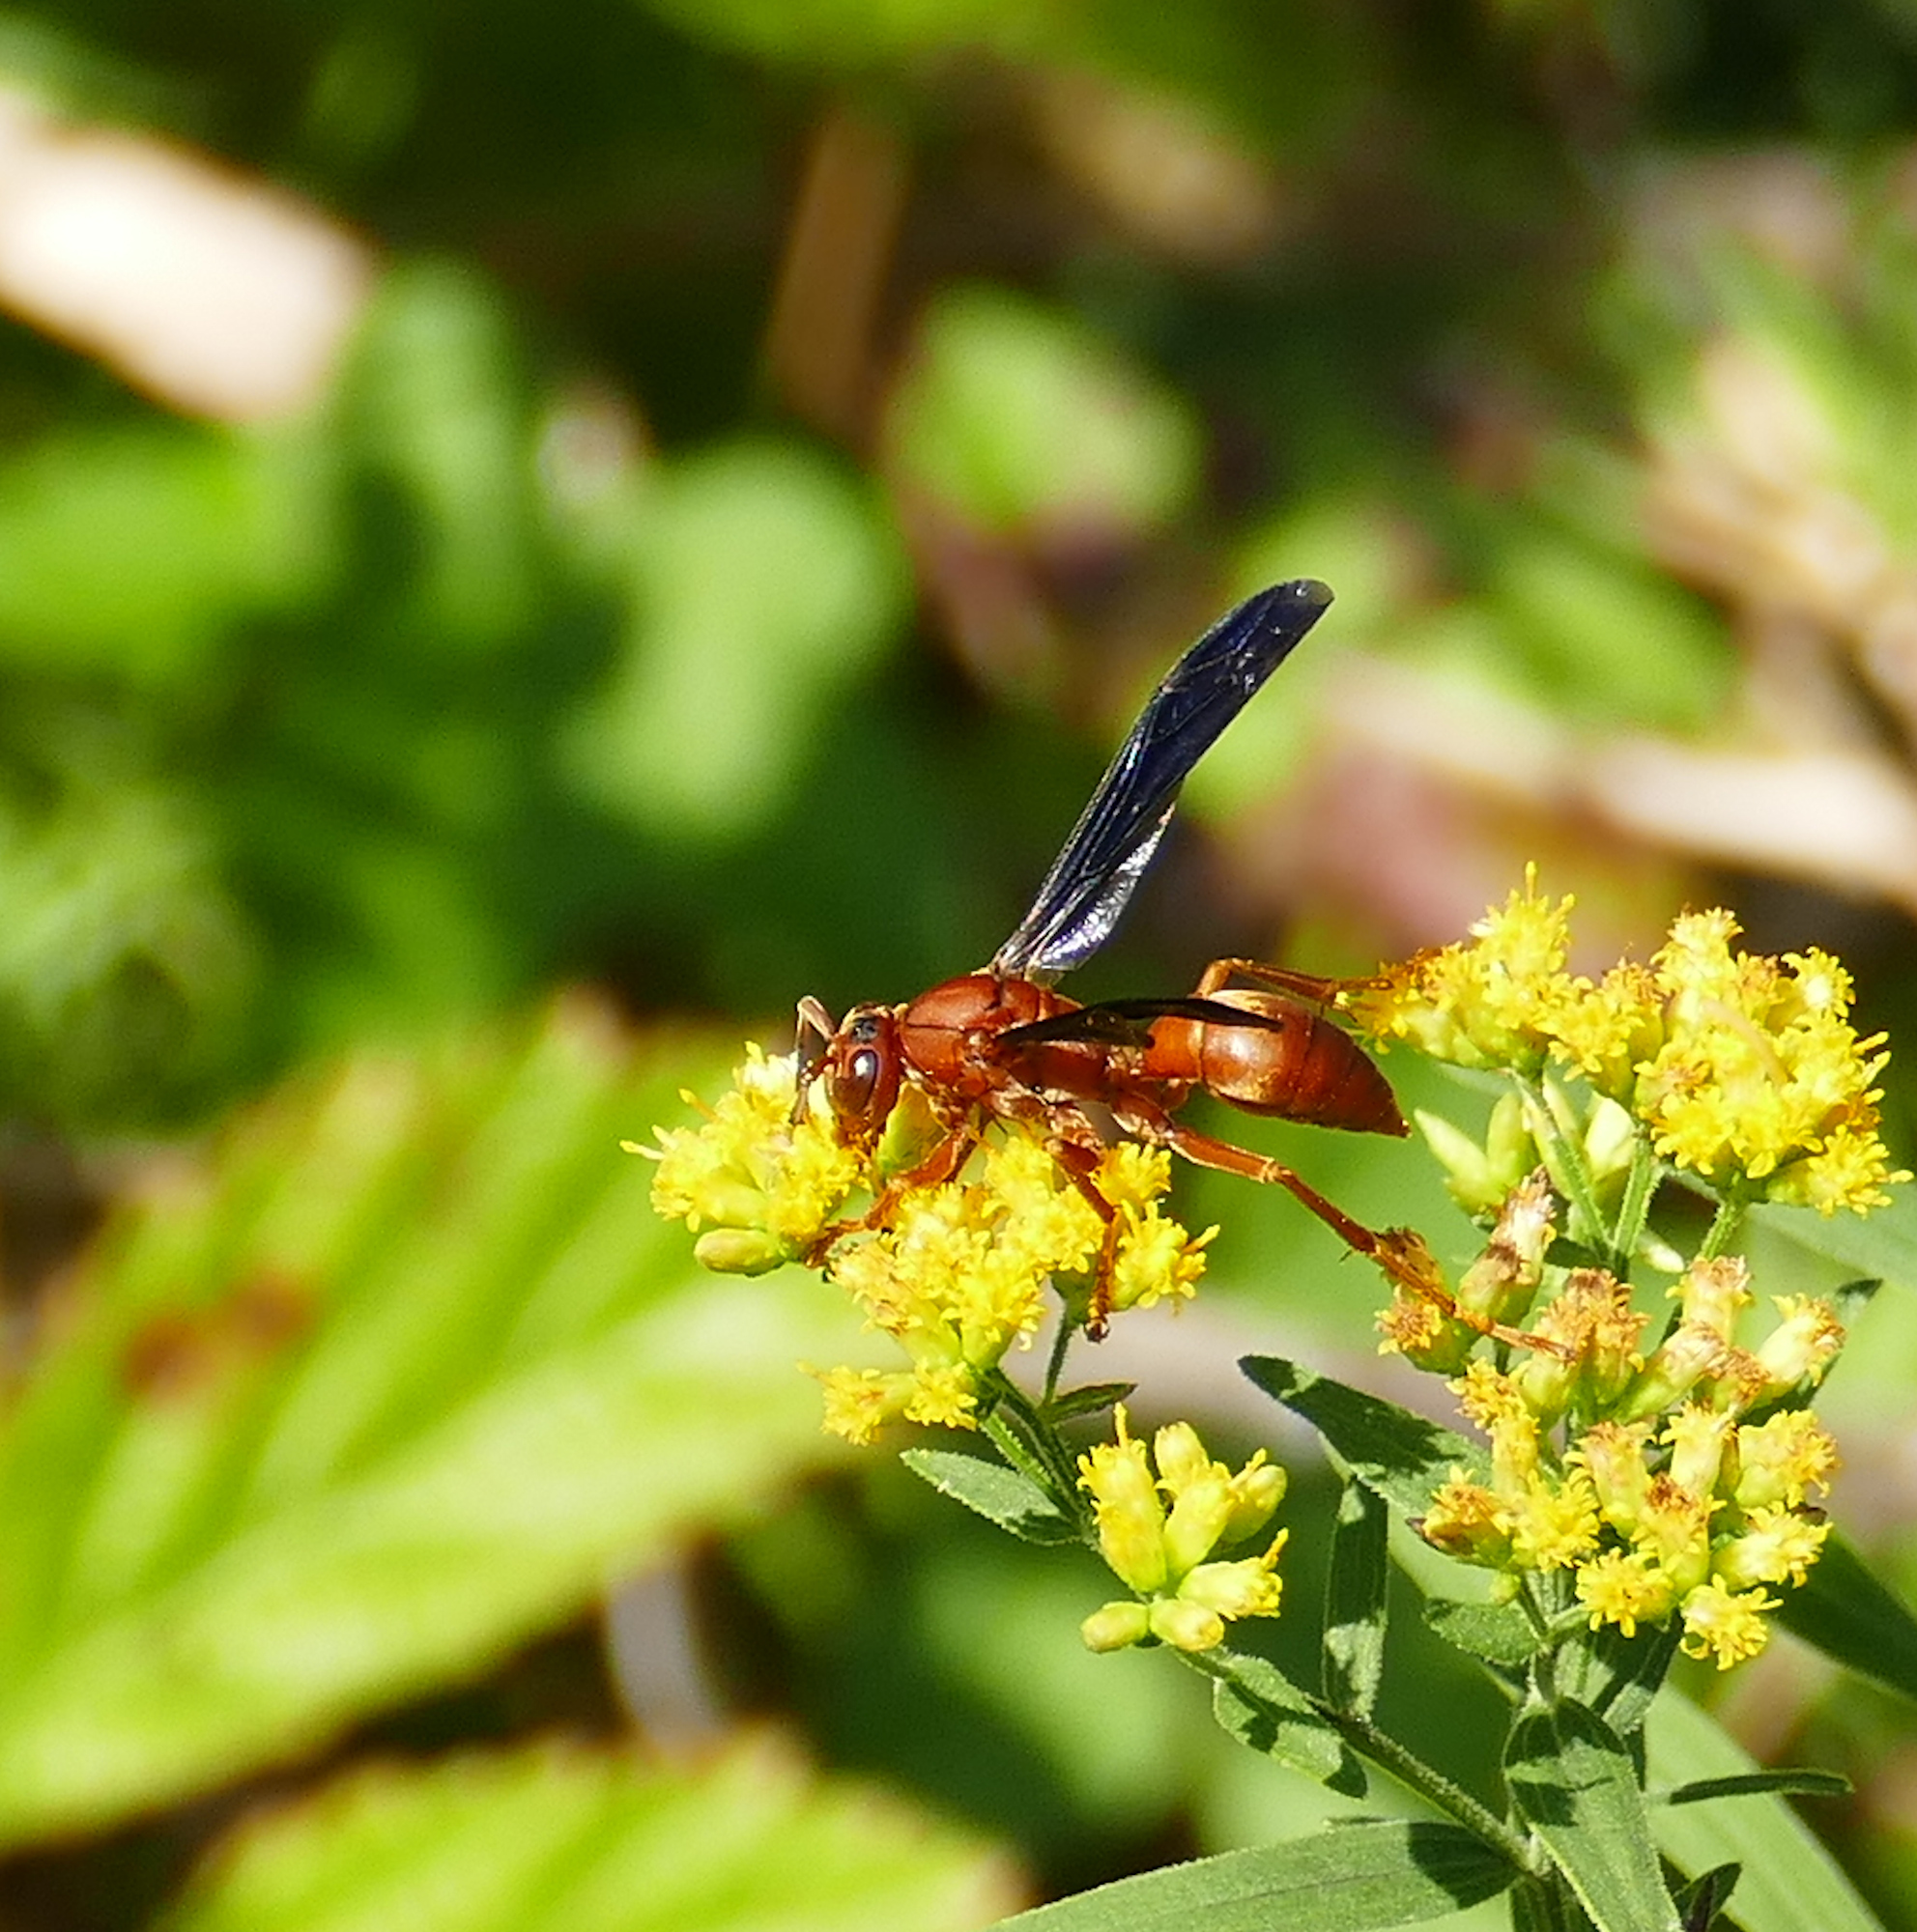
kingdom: Animalia
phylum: Arthropoda
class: Insecta
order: Hymenoptera
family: Eumenidae
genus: Polistes
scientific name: Polistes carolina
